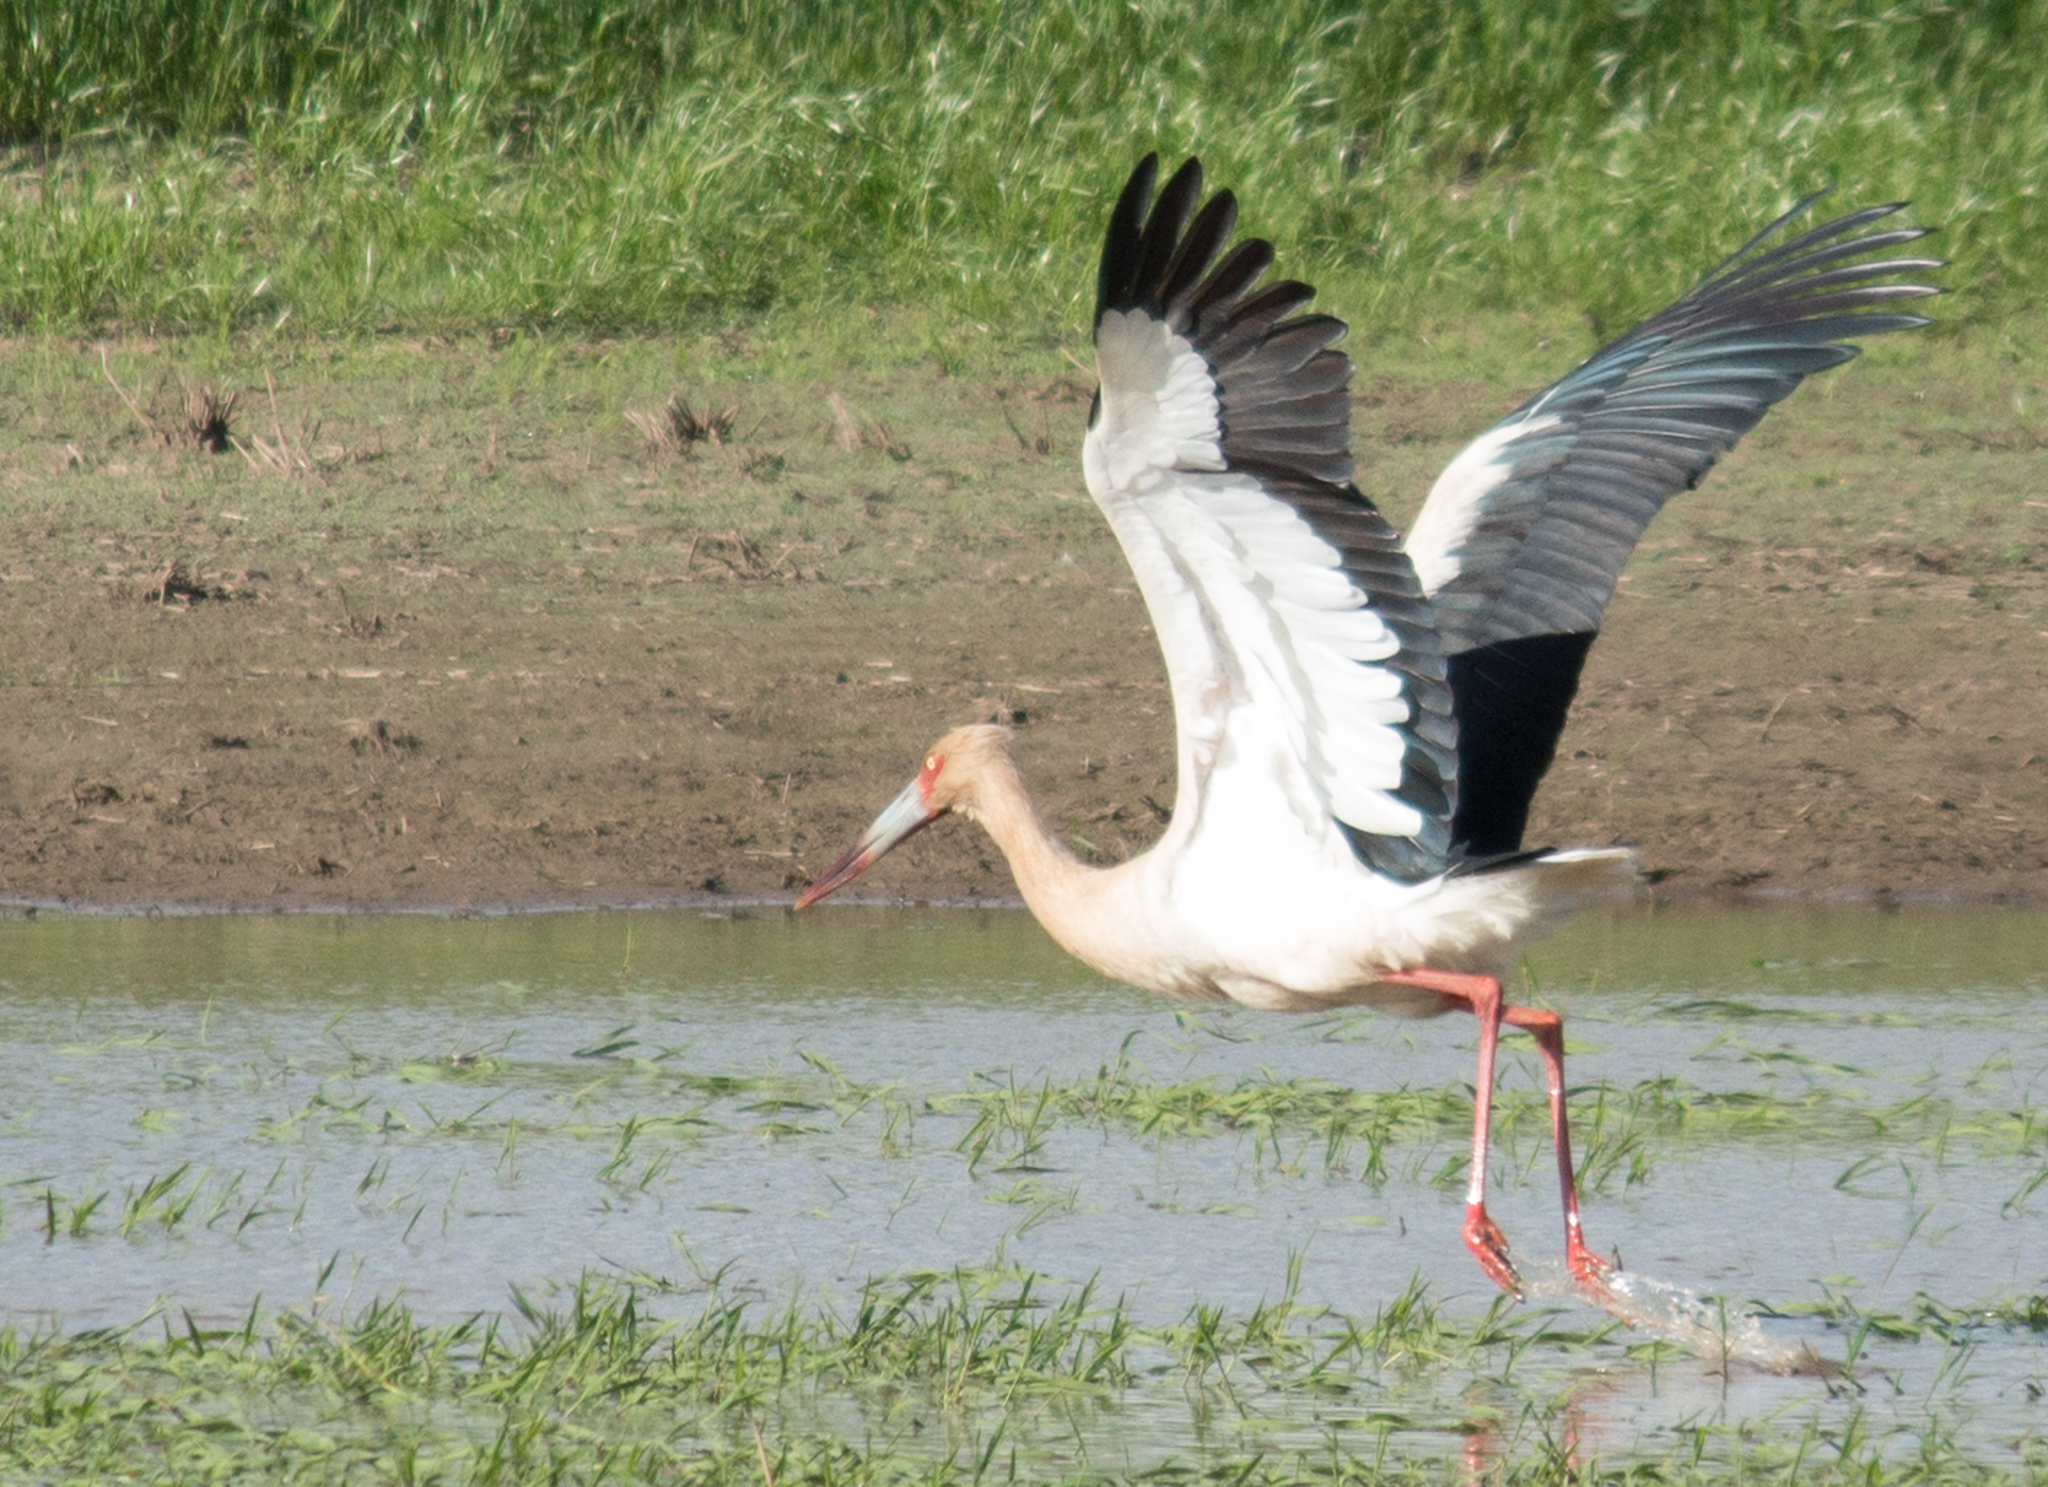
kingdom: Animalia
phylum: Chordata
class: Aves
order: Ciconiiformes
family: Ciconiidae
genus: Ciconia
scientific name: Ciconia maguari
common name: Maguari stork
